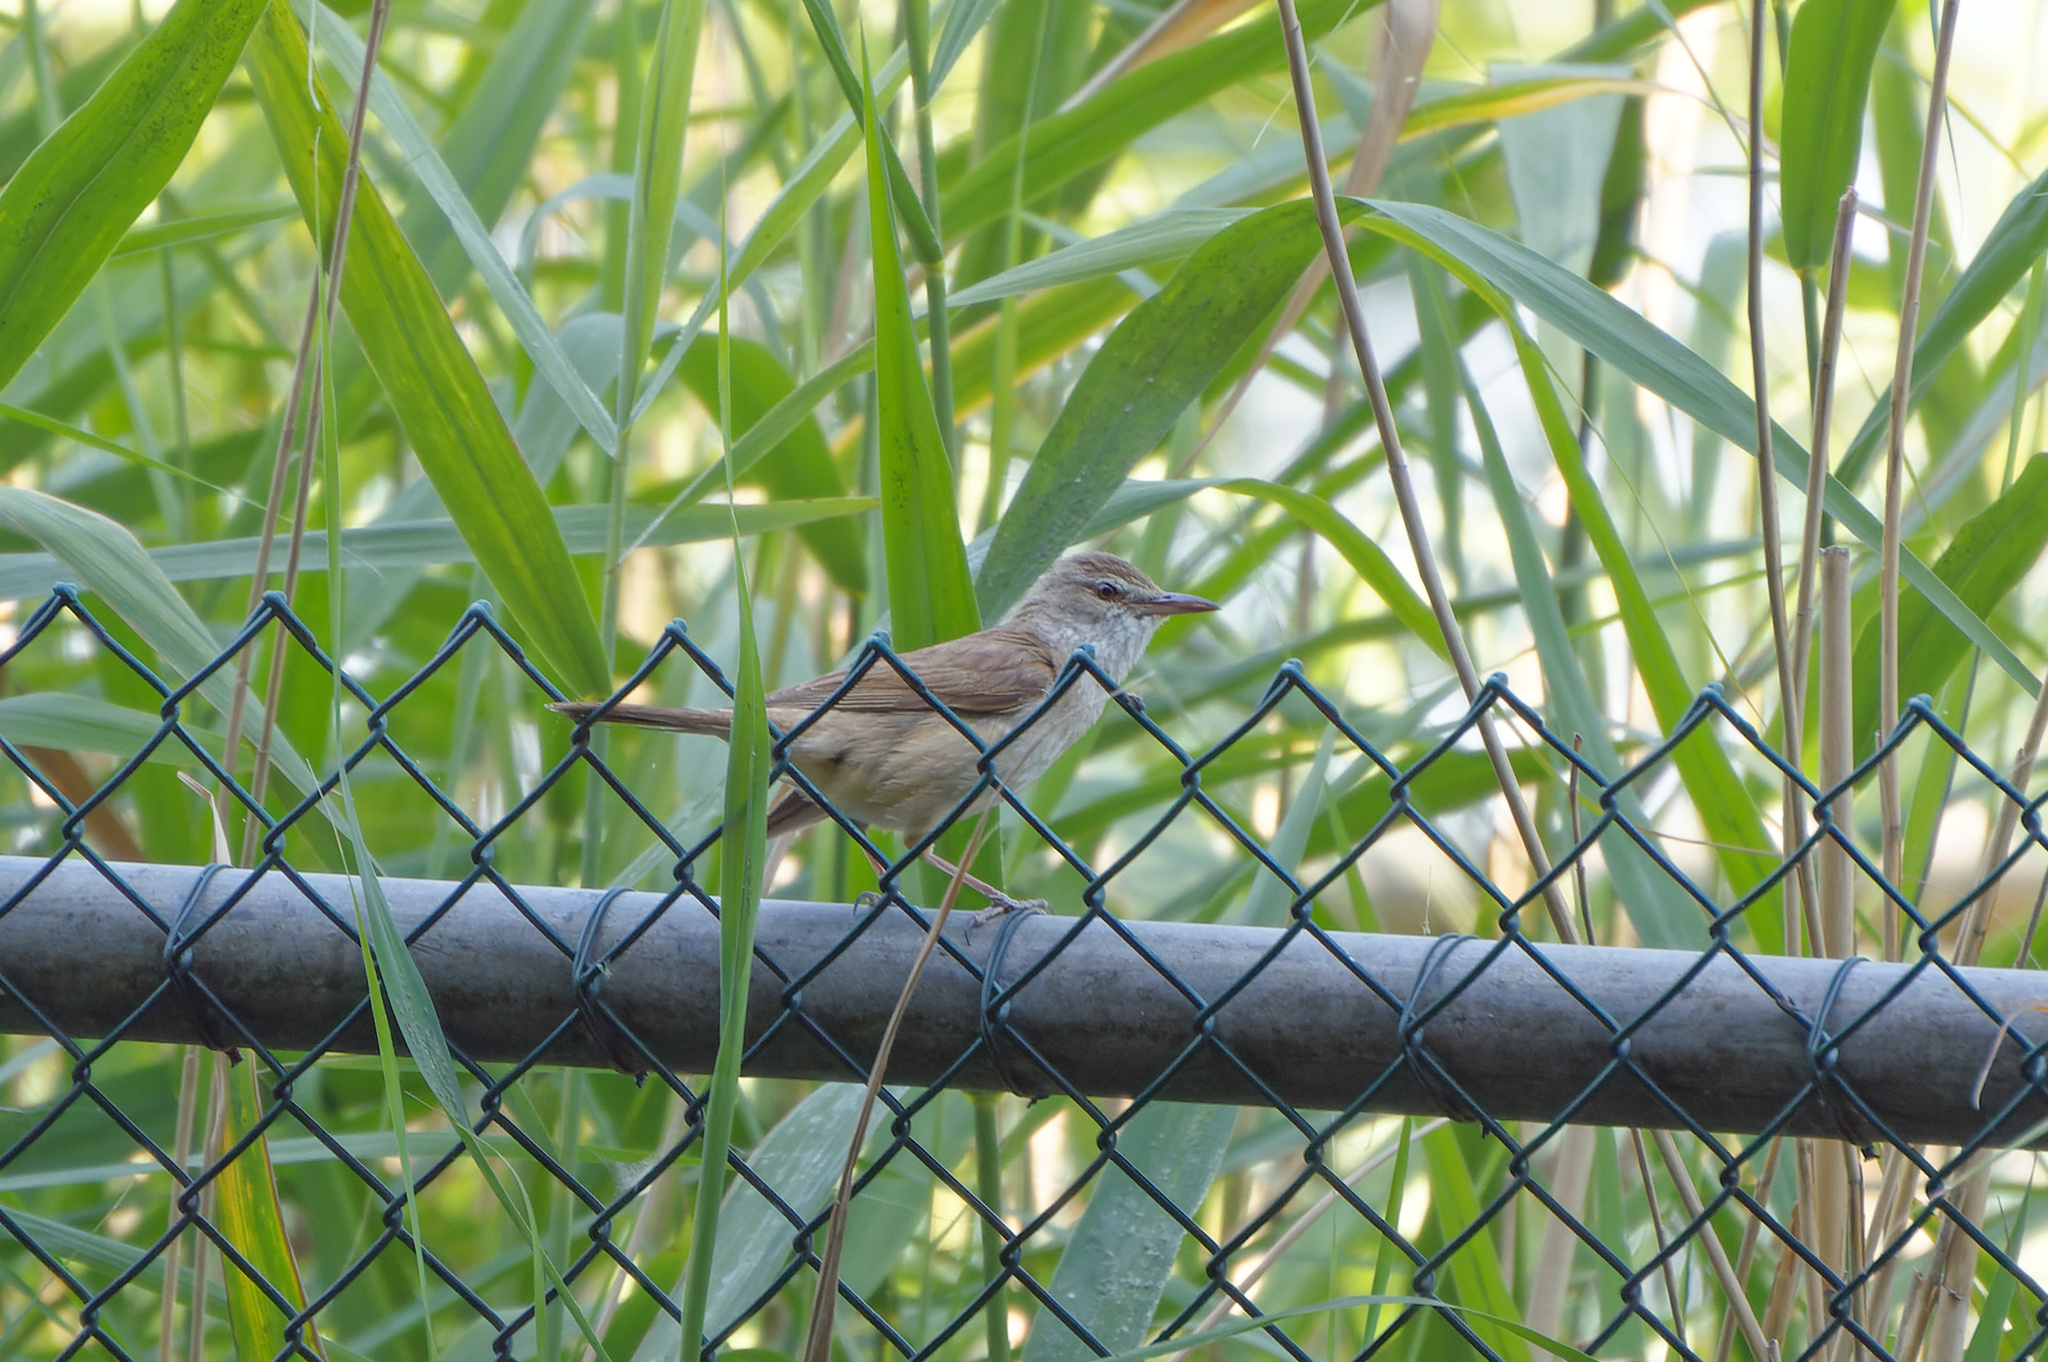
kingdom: Animalia
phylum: Chordata
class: Aves
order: Passeriformes
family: Acrocephalidae
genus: Acrocephalus
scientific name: Acrocephalus arundinaceus
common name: Great reed warbler
